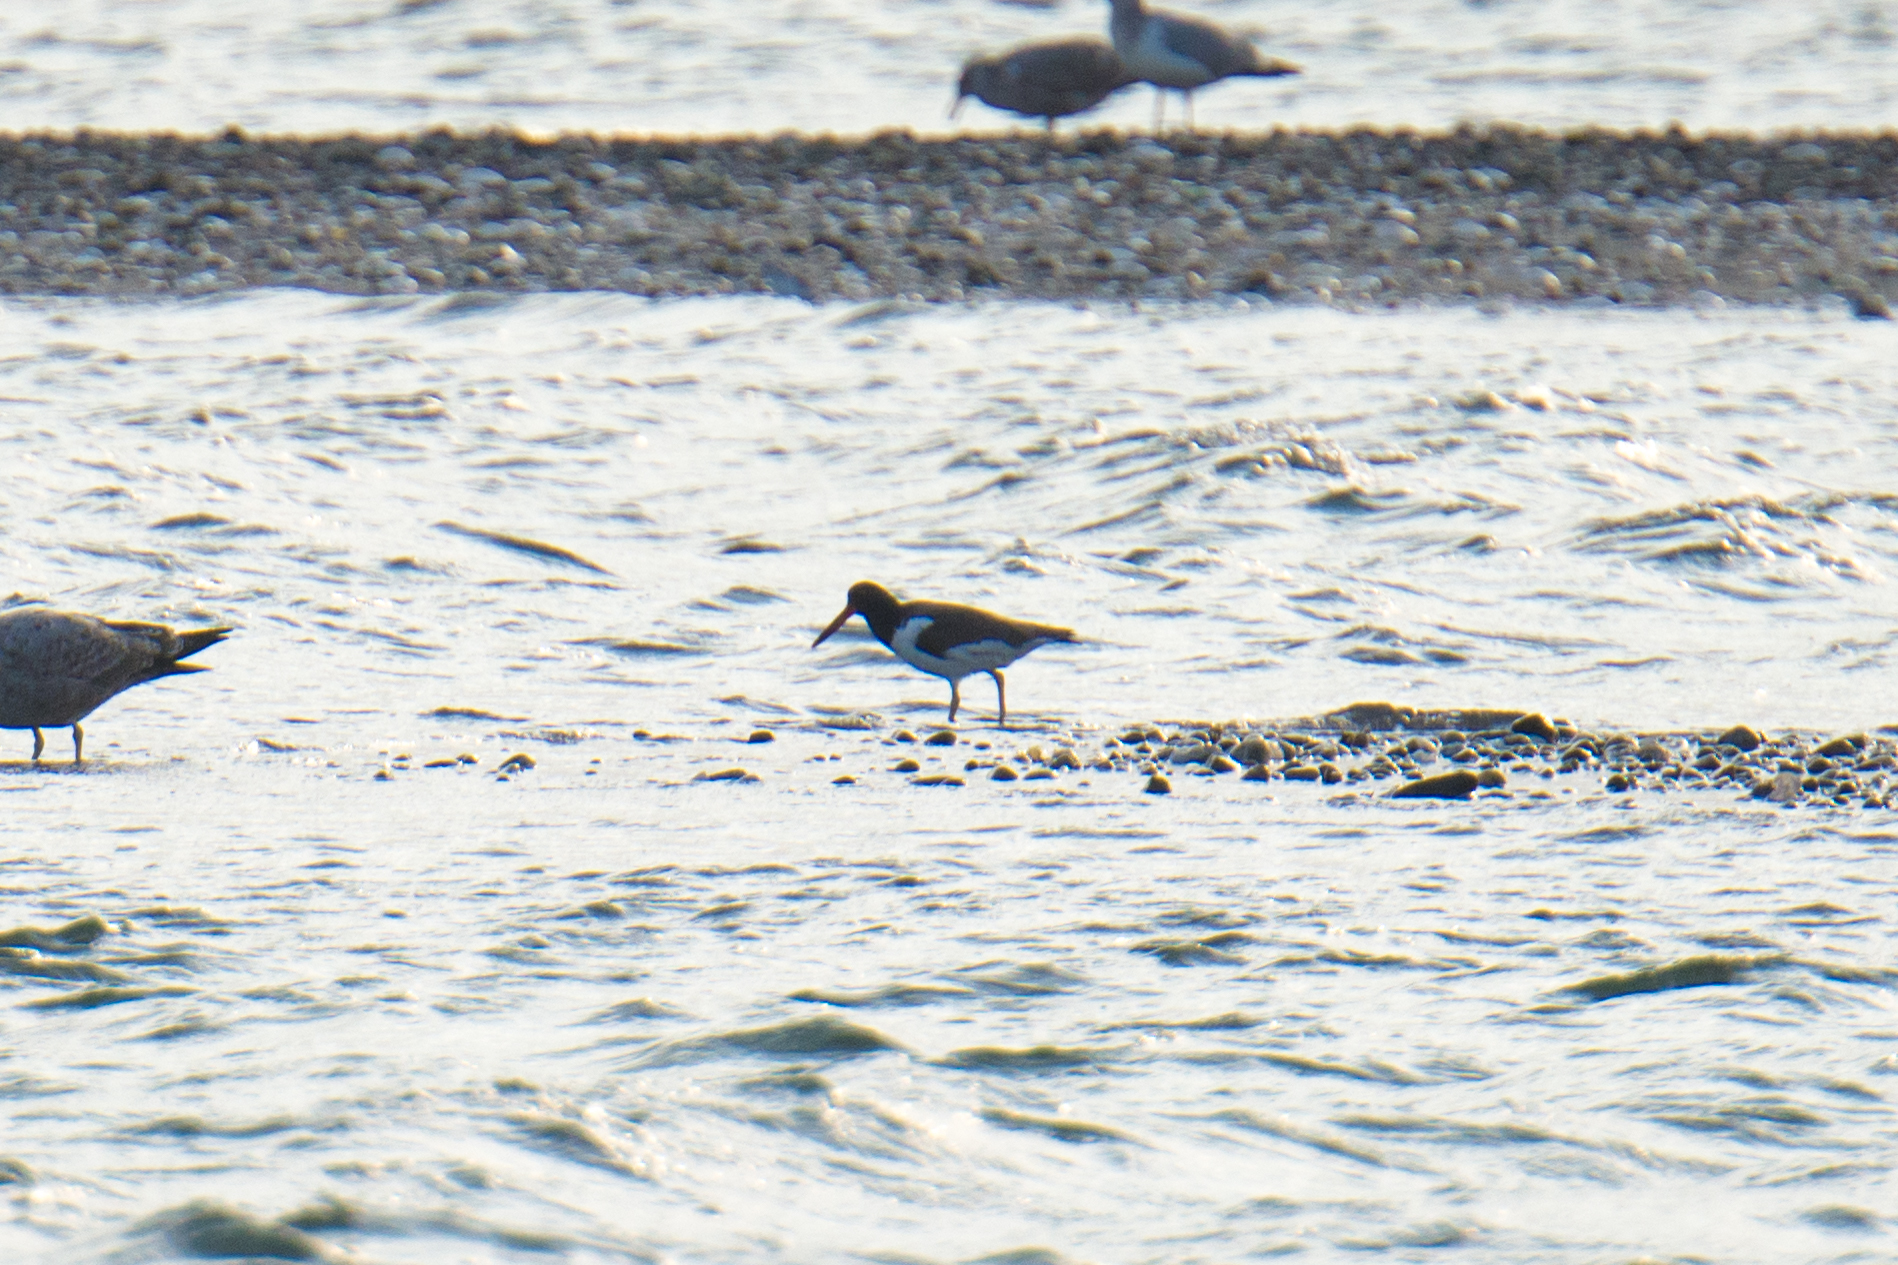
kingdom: Animalia
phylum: Chordata
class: Aves
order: Charadriiformes
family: Haematopodidae
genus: Haematopus
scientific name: Haematopus palliatus
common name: American oystercatcher
